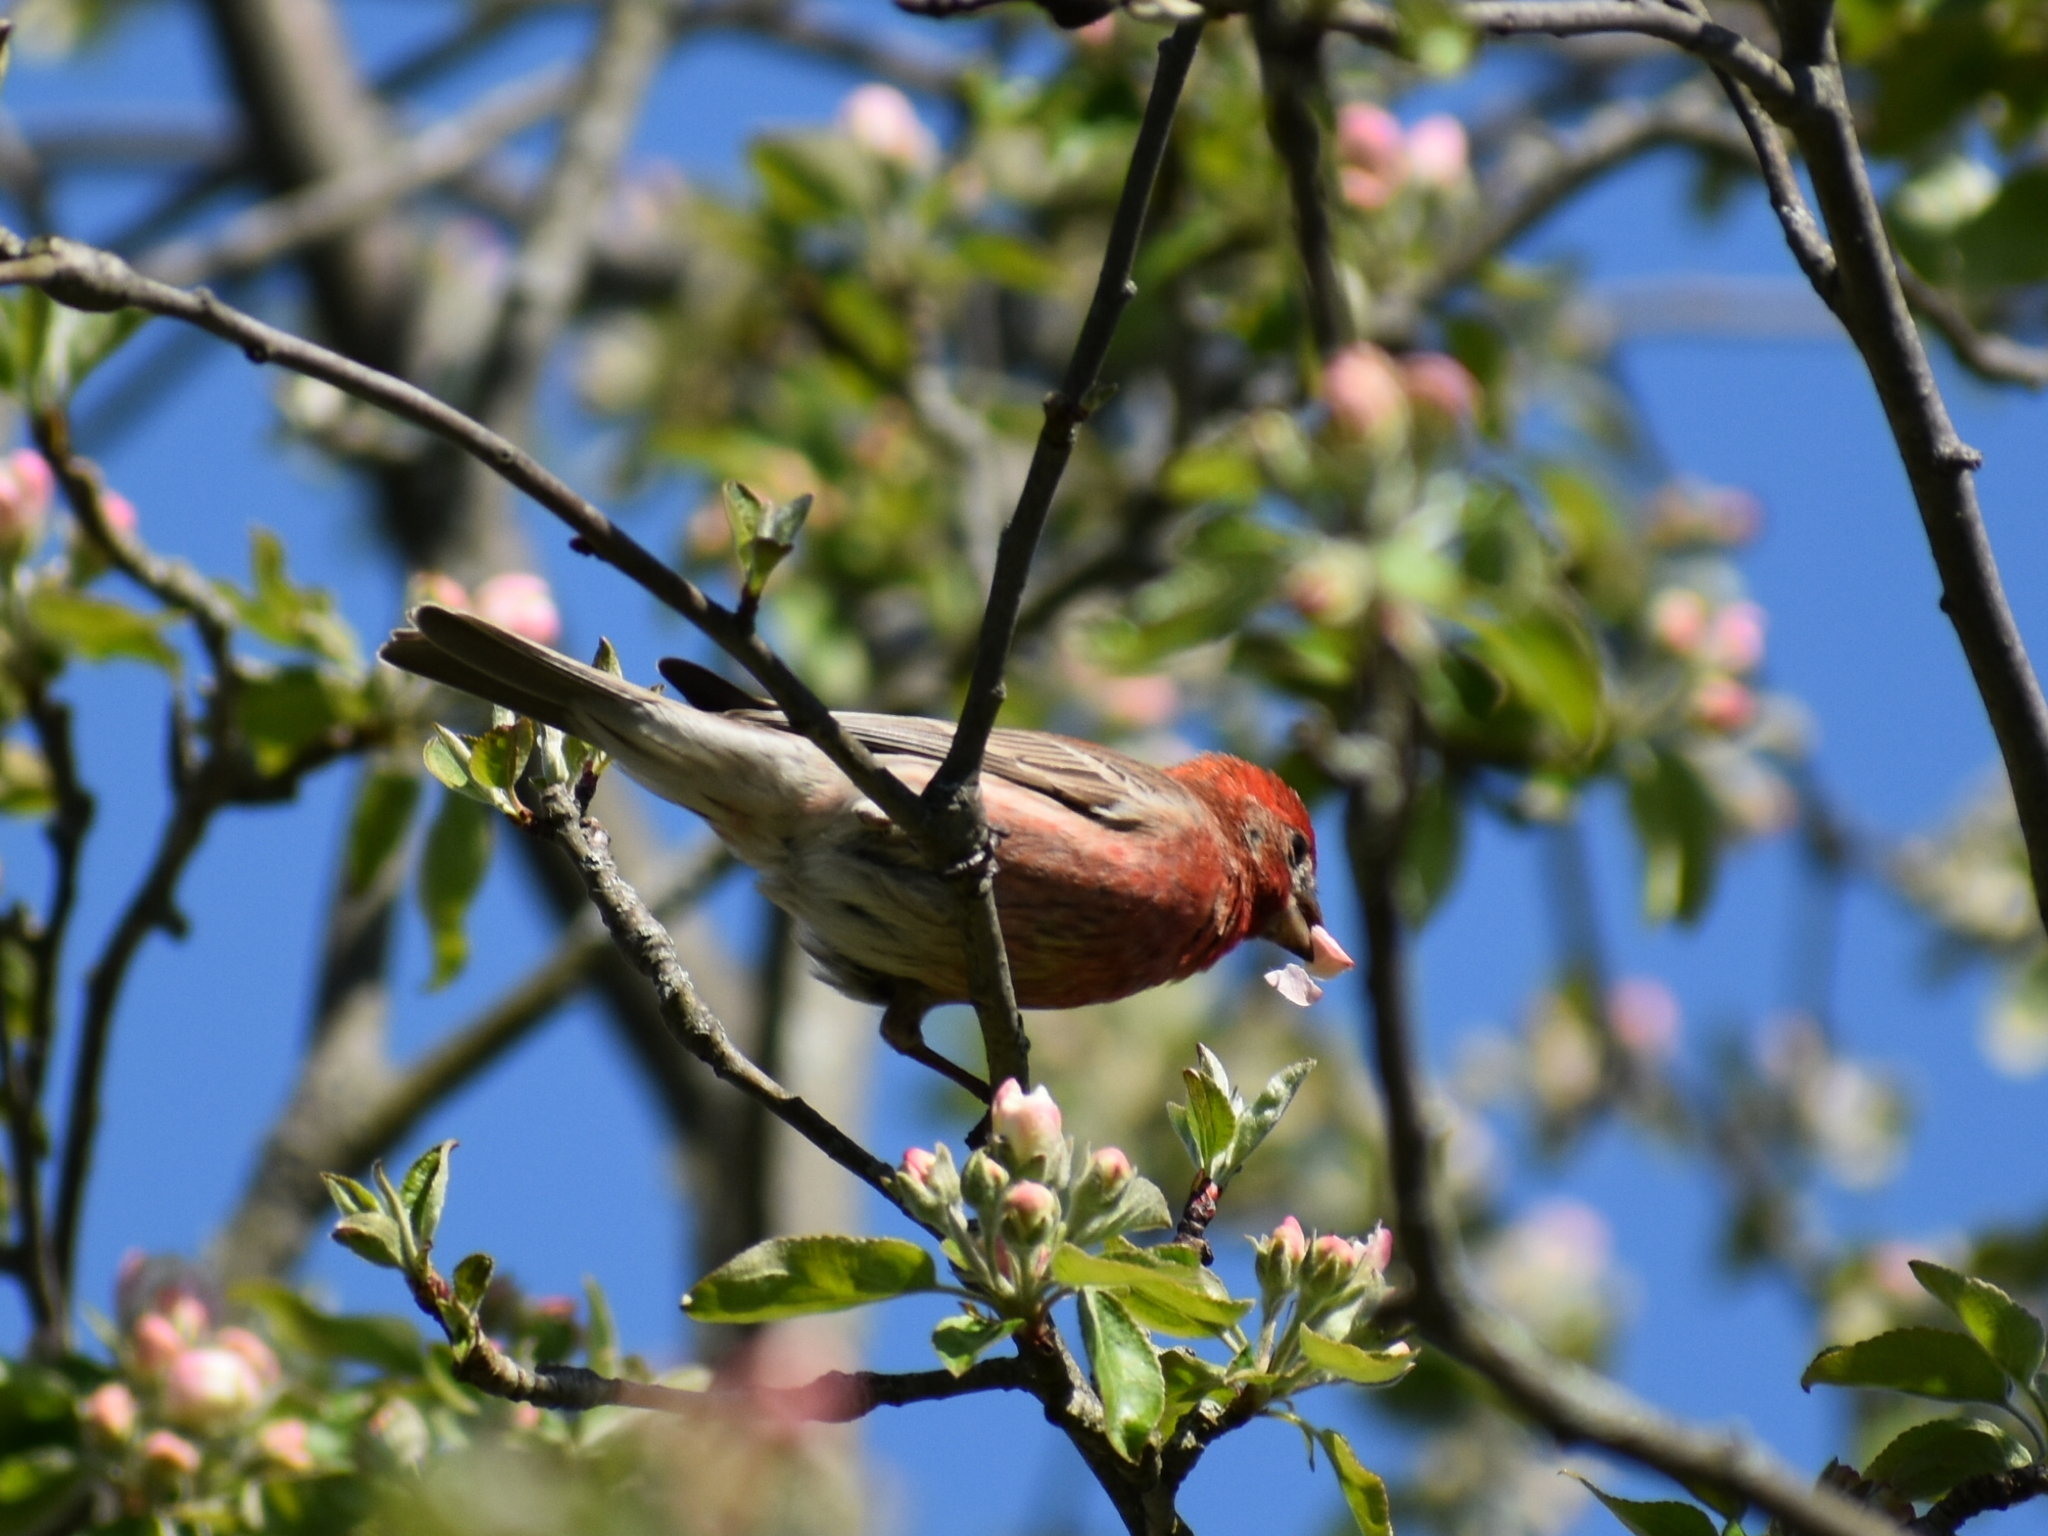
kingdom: Animalia
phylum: Chordata
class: Aves
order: Passeriformes
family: Fringillidae
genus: Haemorhous
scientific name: Haemorhous mexicanus
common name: House finch
